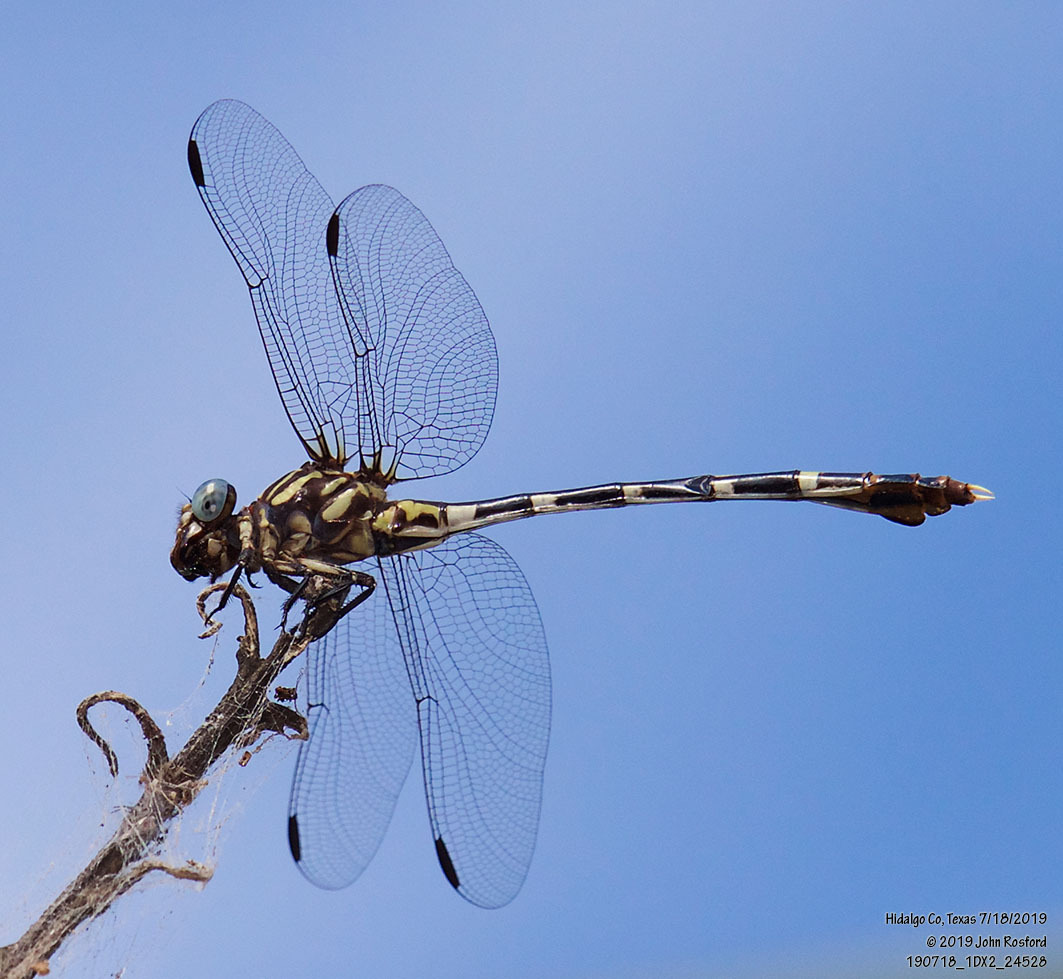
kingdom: Animalia
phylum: Arthropoda
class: Insecta
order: Odonata
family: Gomphidae
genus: Phyllogomphoides
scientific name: Phyllogomphoides albrighti
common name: Five-striped leaftail
